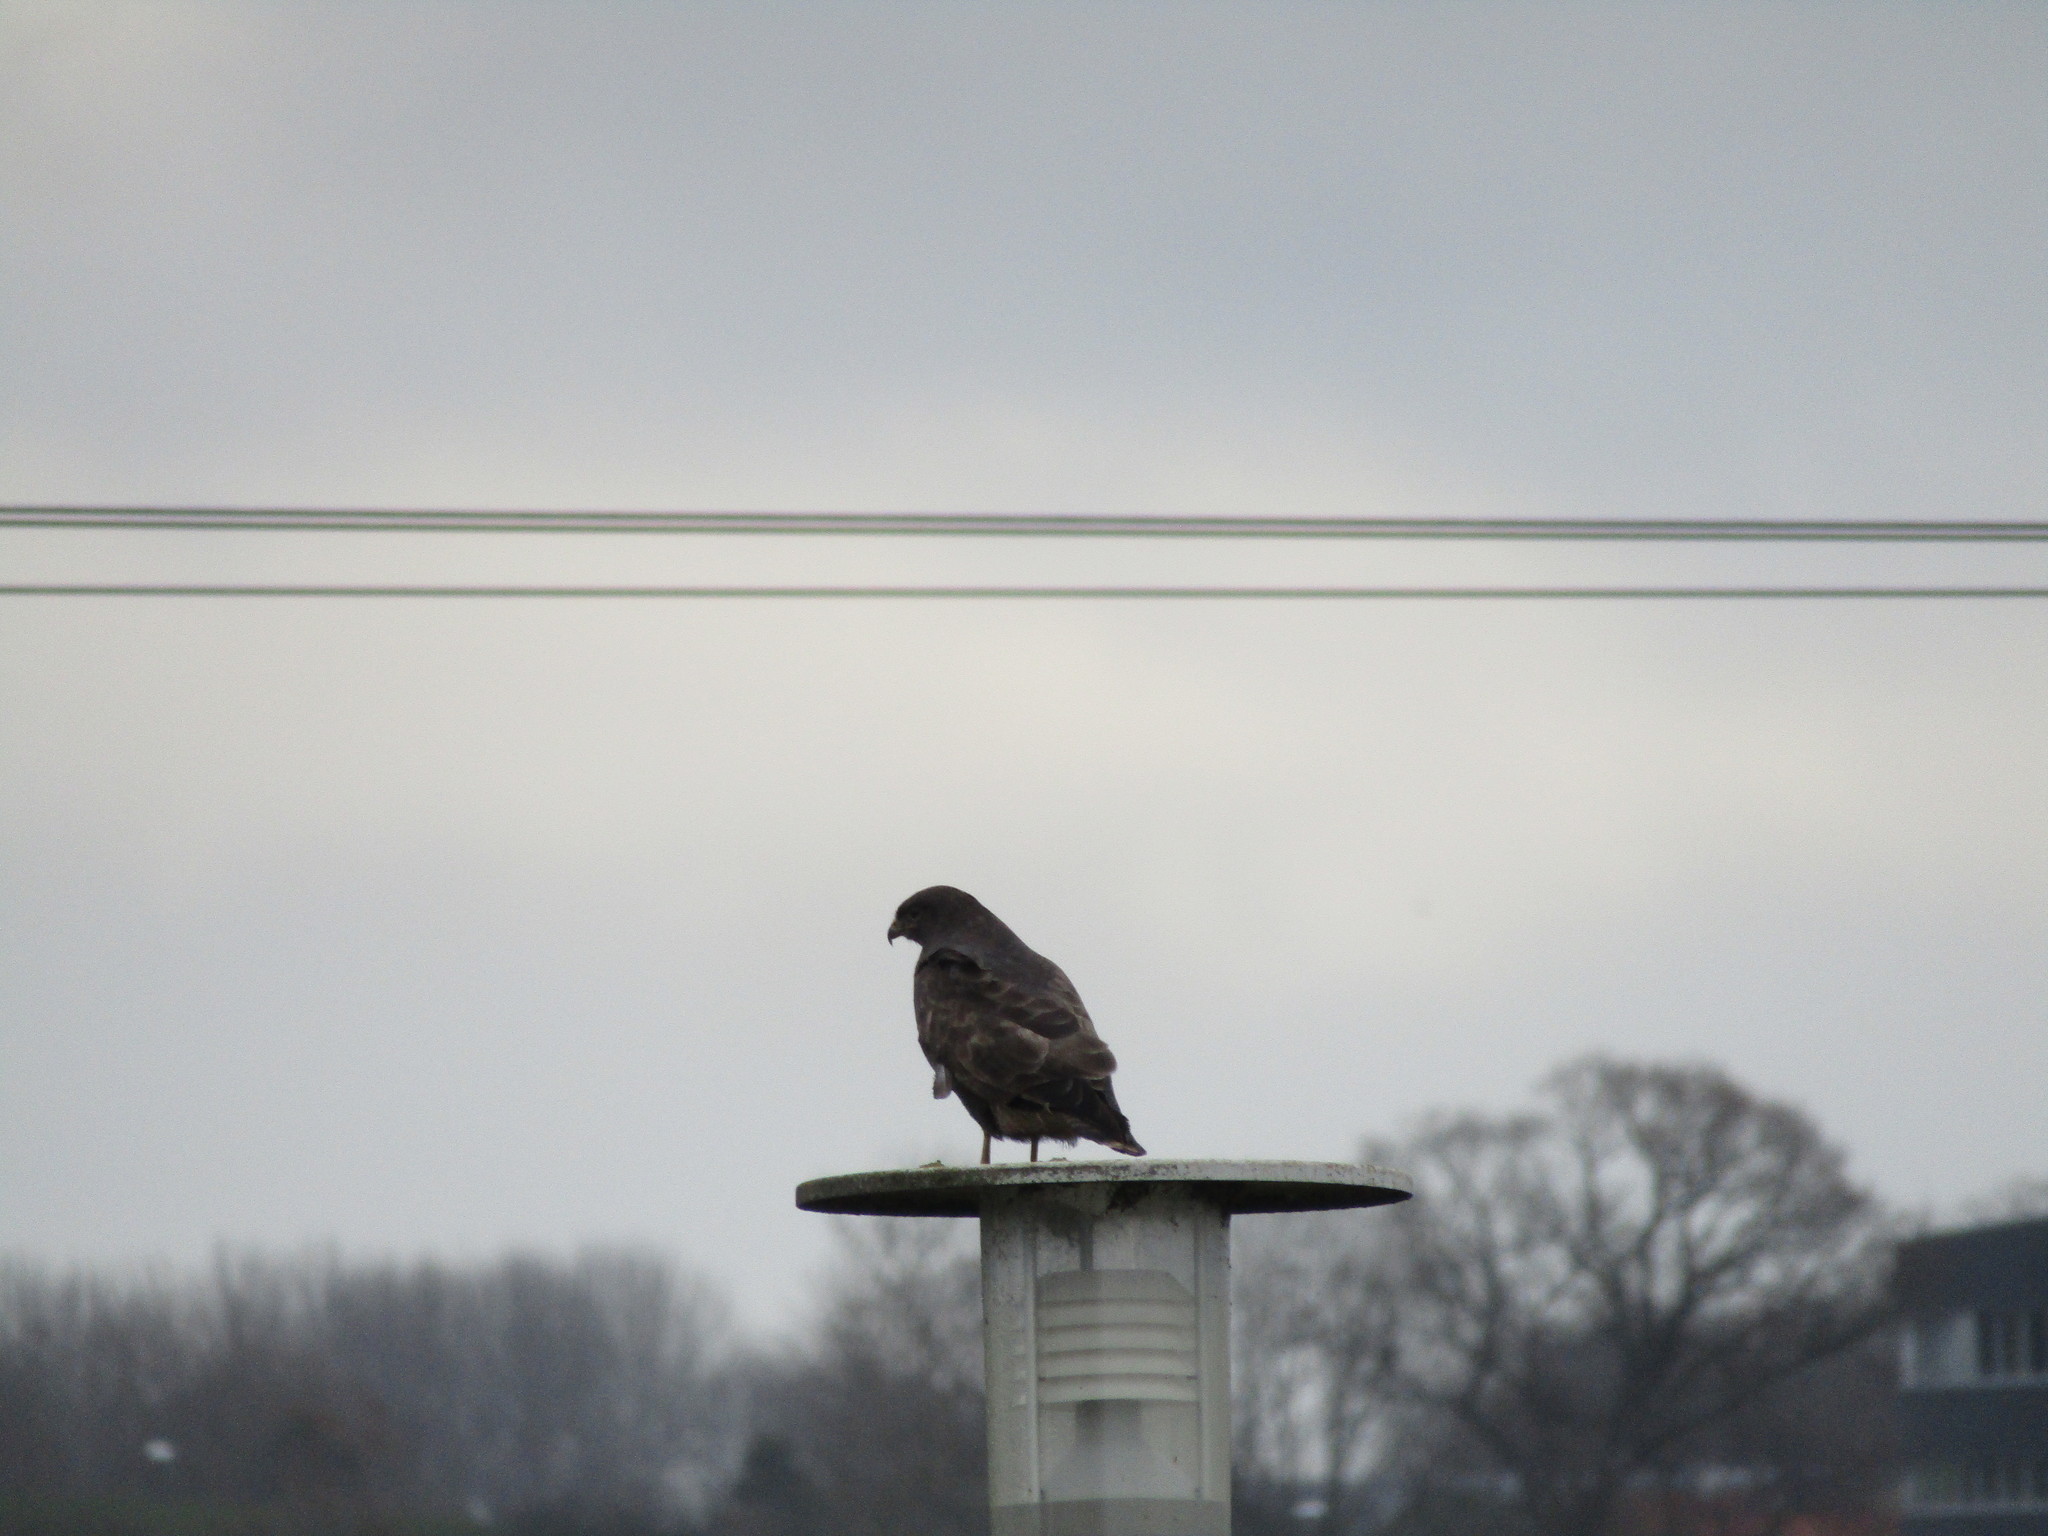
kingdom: Animalia
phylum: Chordata
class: Aves
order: Accipitriformes
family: Accipitridae
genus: Buteo
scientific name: Buteo buteo
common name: Common buzzard
